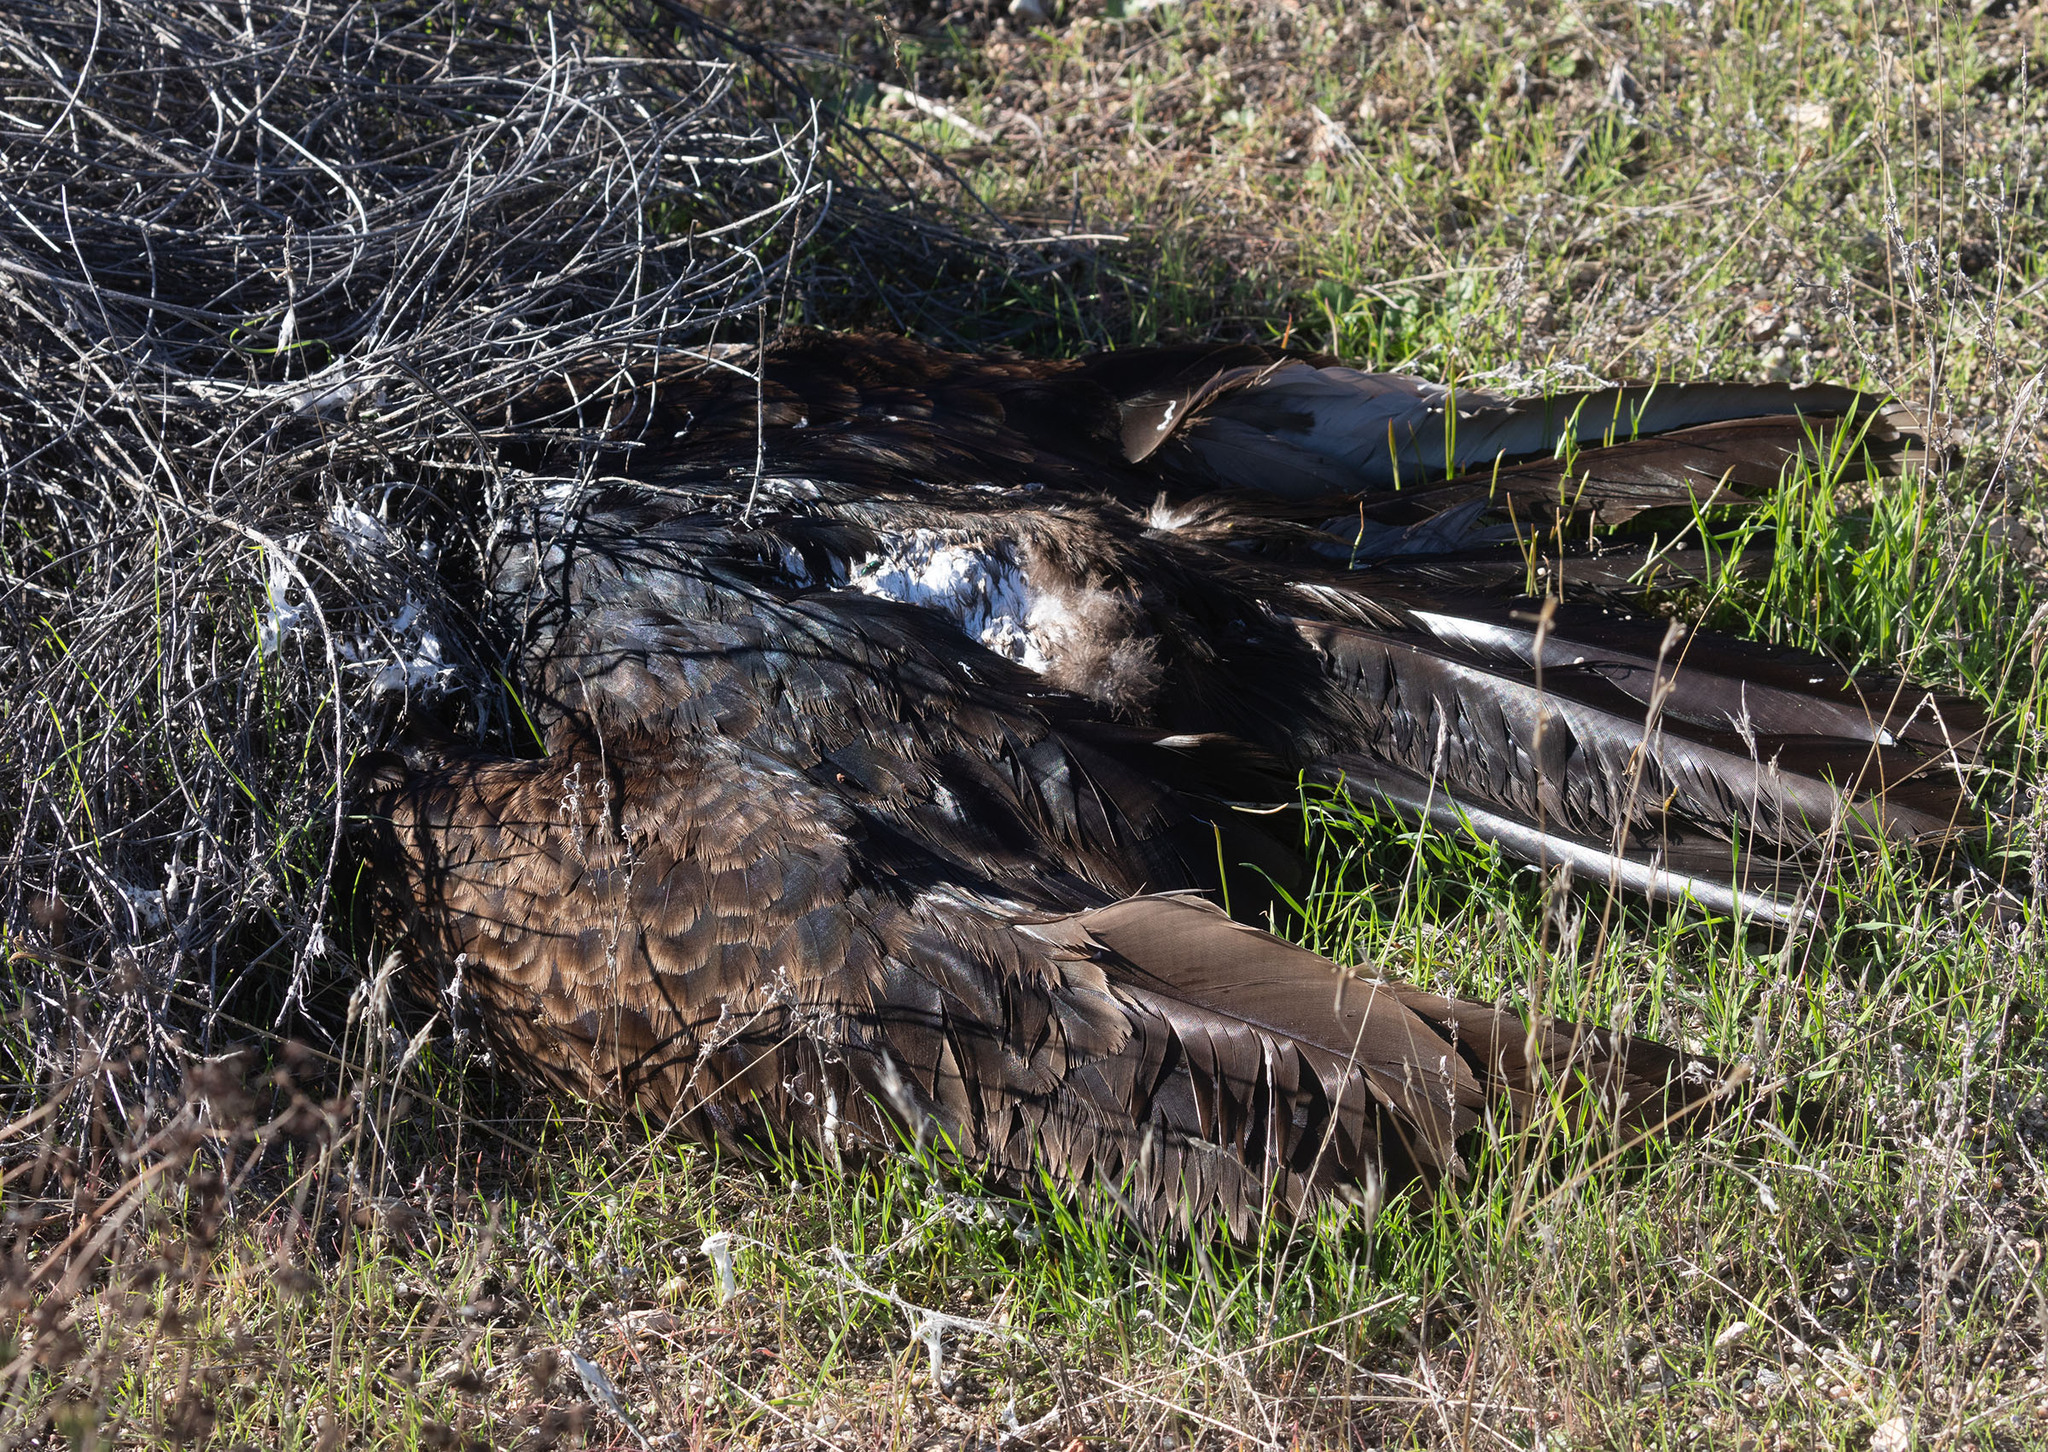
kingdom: Animalia
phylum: Chordata
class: Aves
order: Accipitriformes
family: Cathartidae
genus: Cathartes
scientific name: Cathartes aura
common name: Turkey vulture
